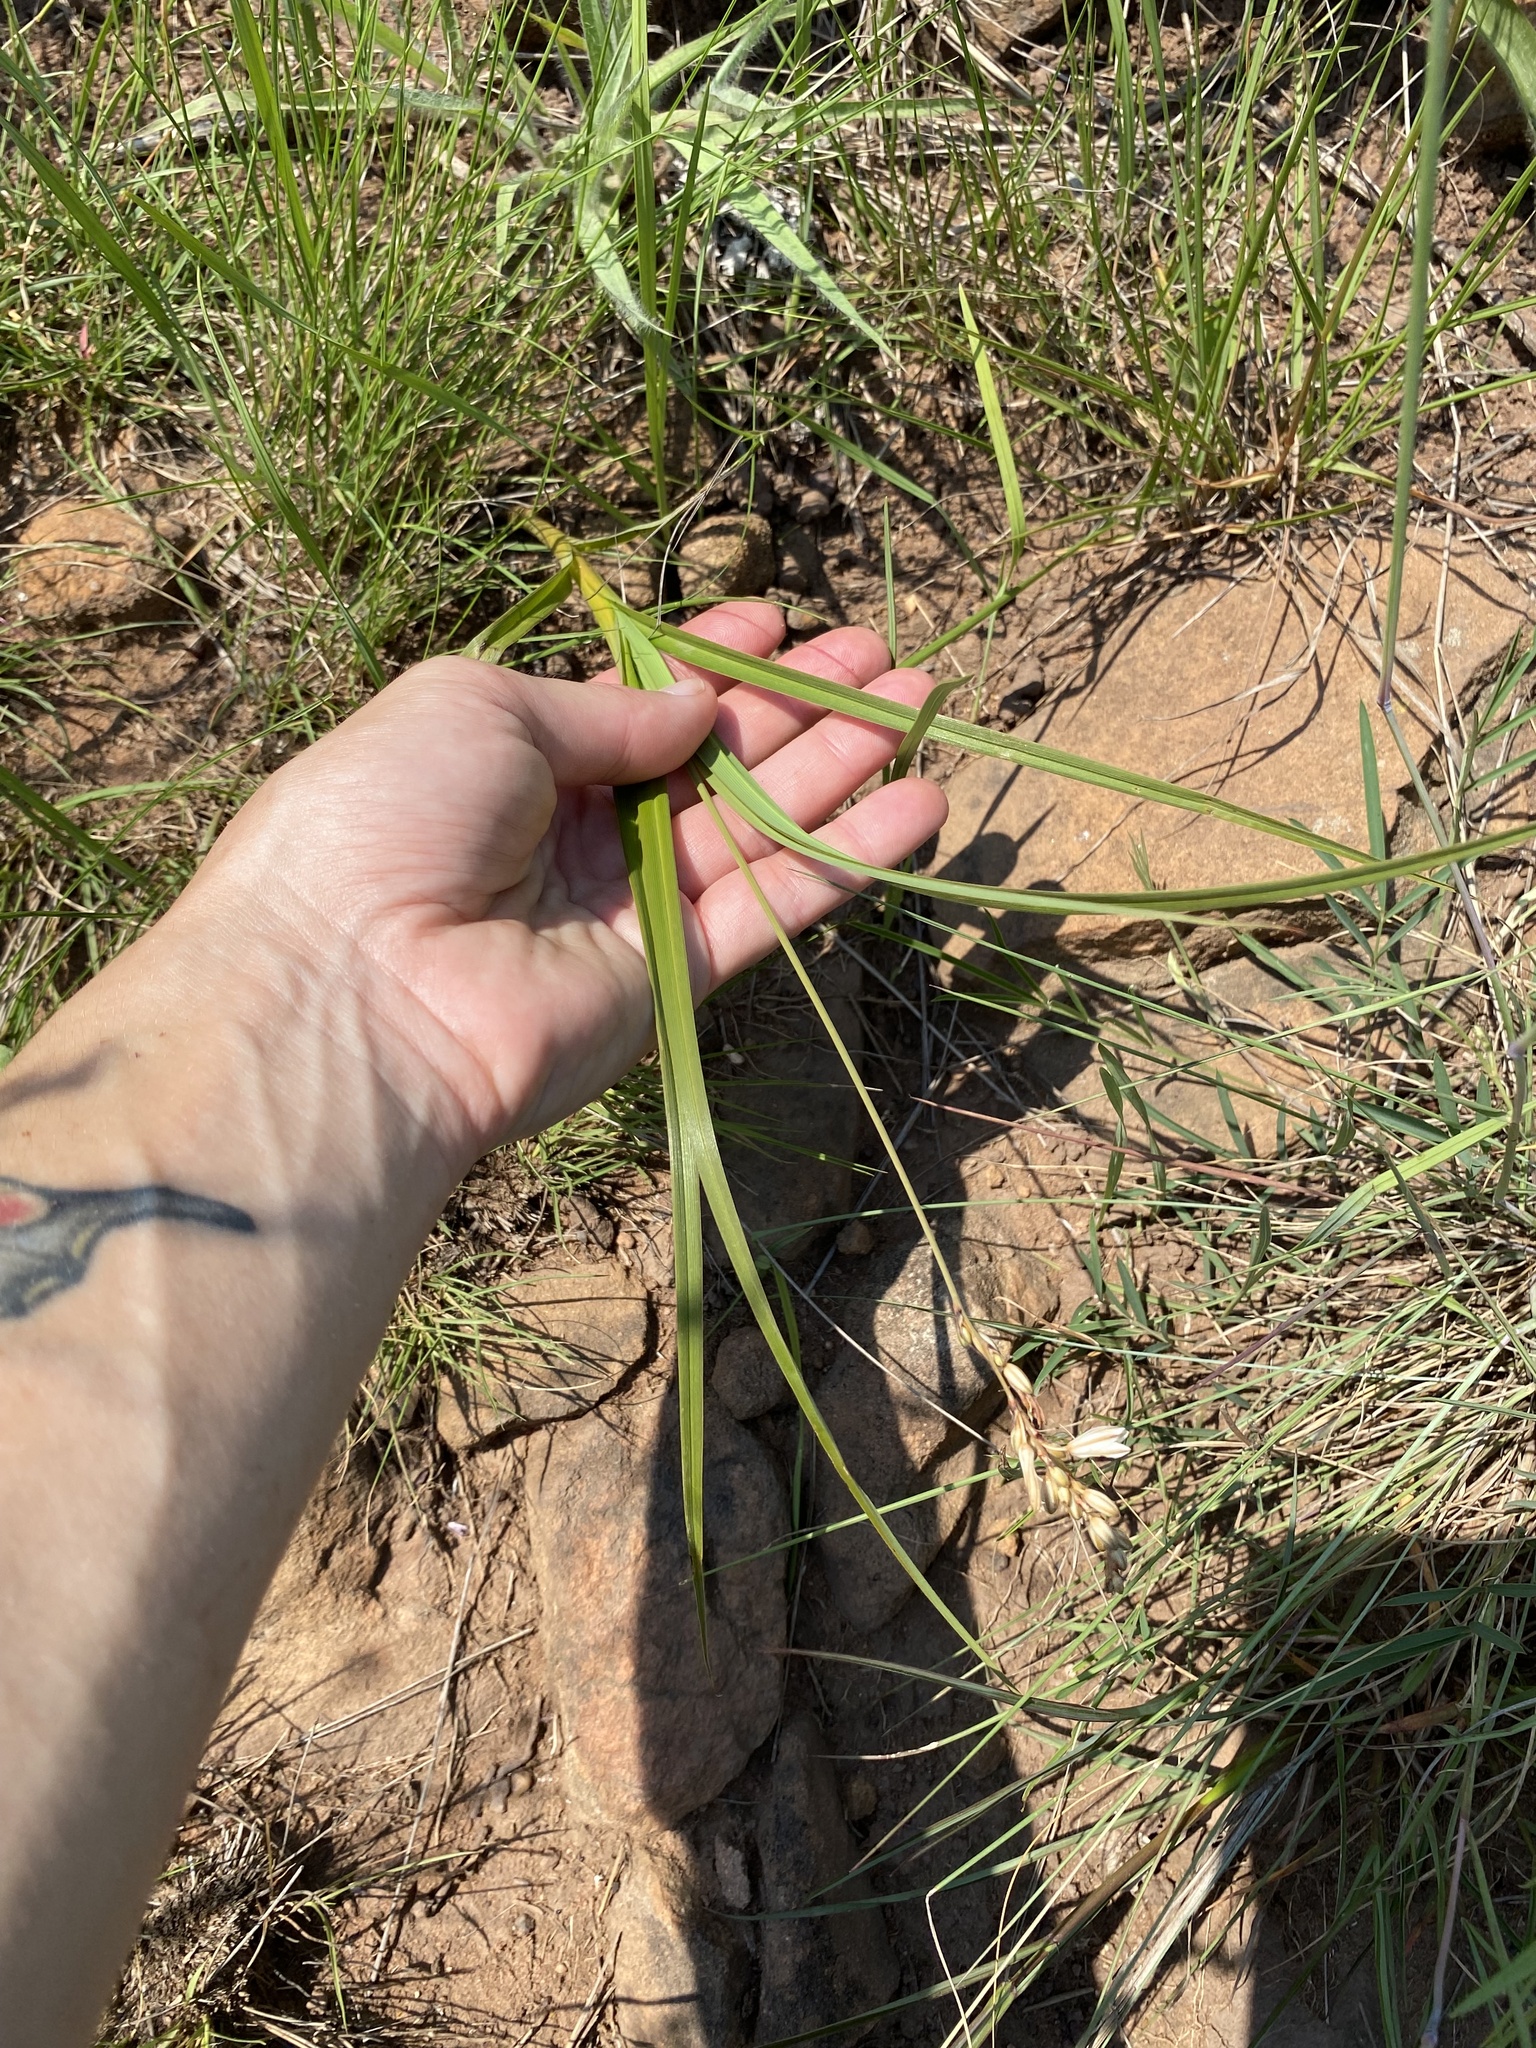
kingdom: Plantae
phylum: Tracheophyta
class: Liliopsida
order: Asparagales
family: Asparagaceae
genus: Chlorophytum
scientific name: Chlorophytum saundersiae
